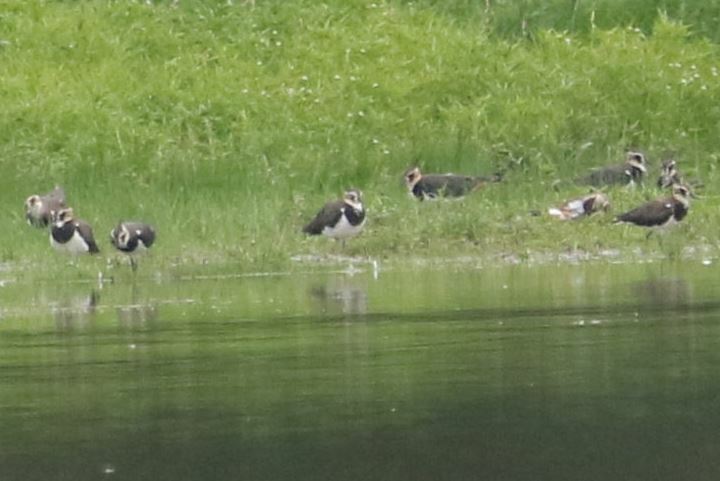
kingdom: Animalia
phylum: Chordata
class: Aves
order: Charadriiformes
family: Charadriidae
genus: Vanellus
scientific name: Vanellus vanellus
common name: Northern lapwing
